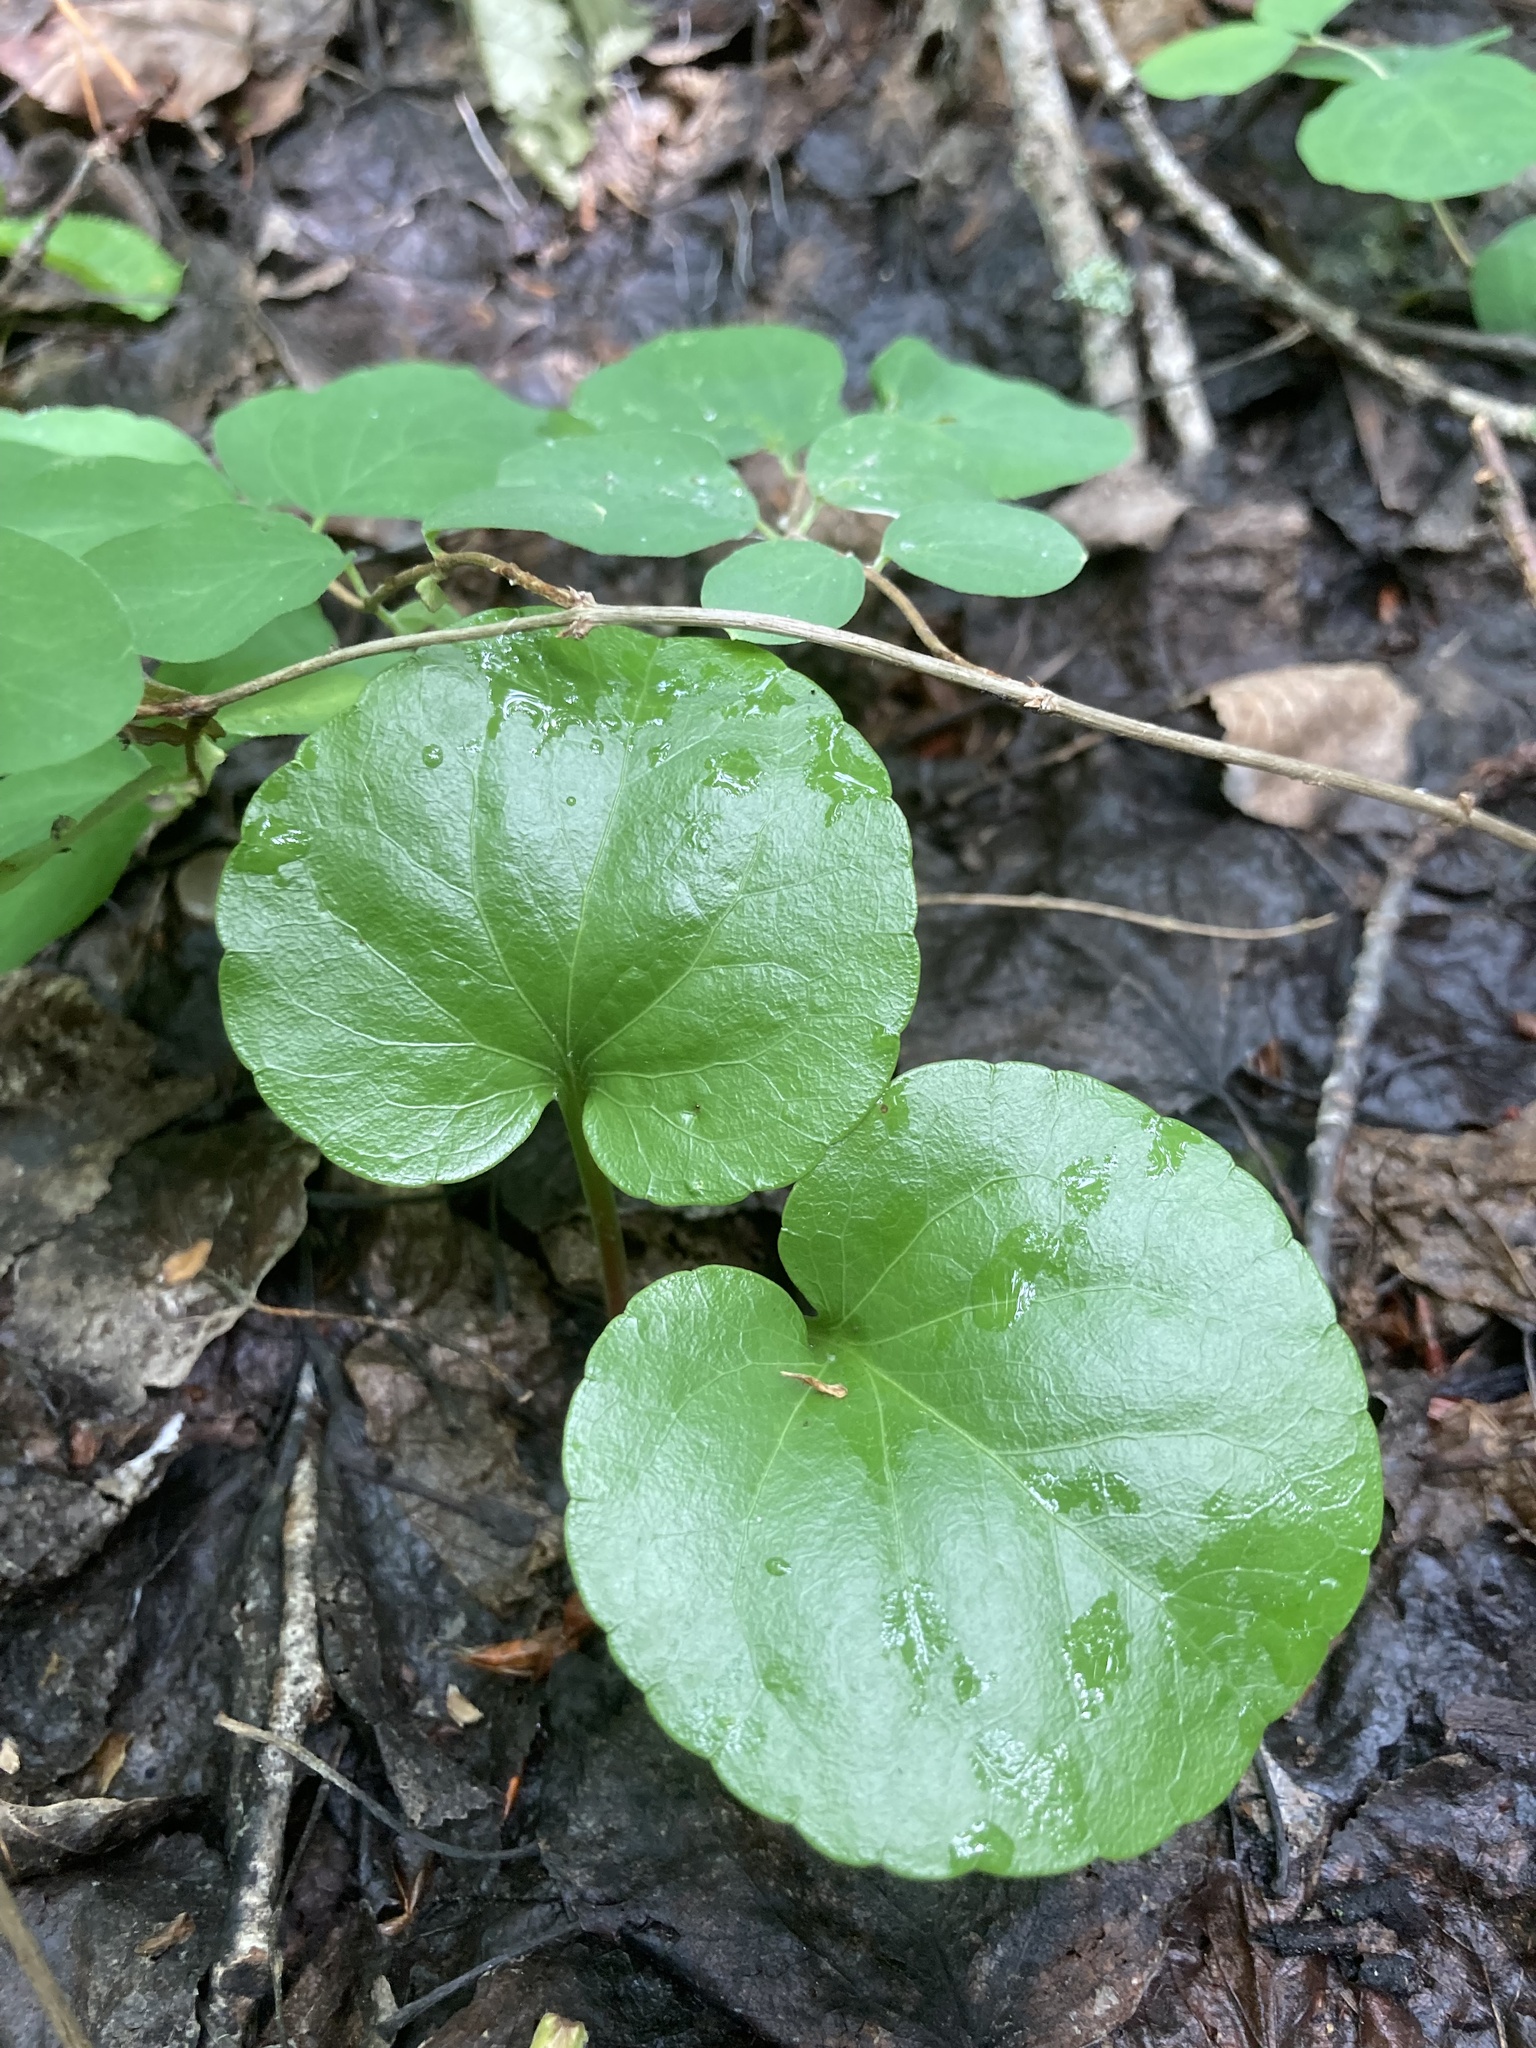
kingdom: Plantae
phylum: Tracheophyta
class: Magnoliopsida
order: Ericales
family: Ericaceae
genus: Pyrola
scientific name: Pyrola asarifolia
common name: Bog wintergreen
